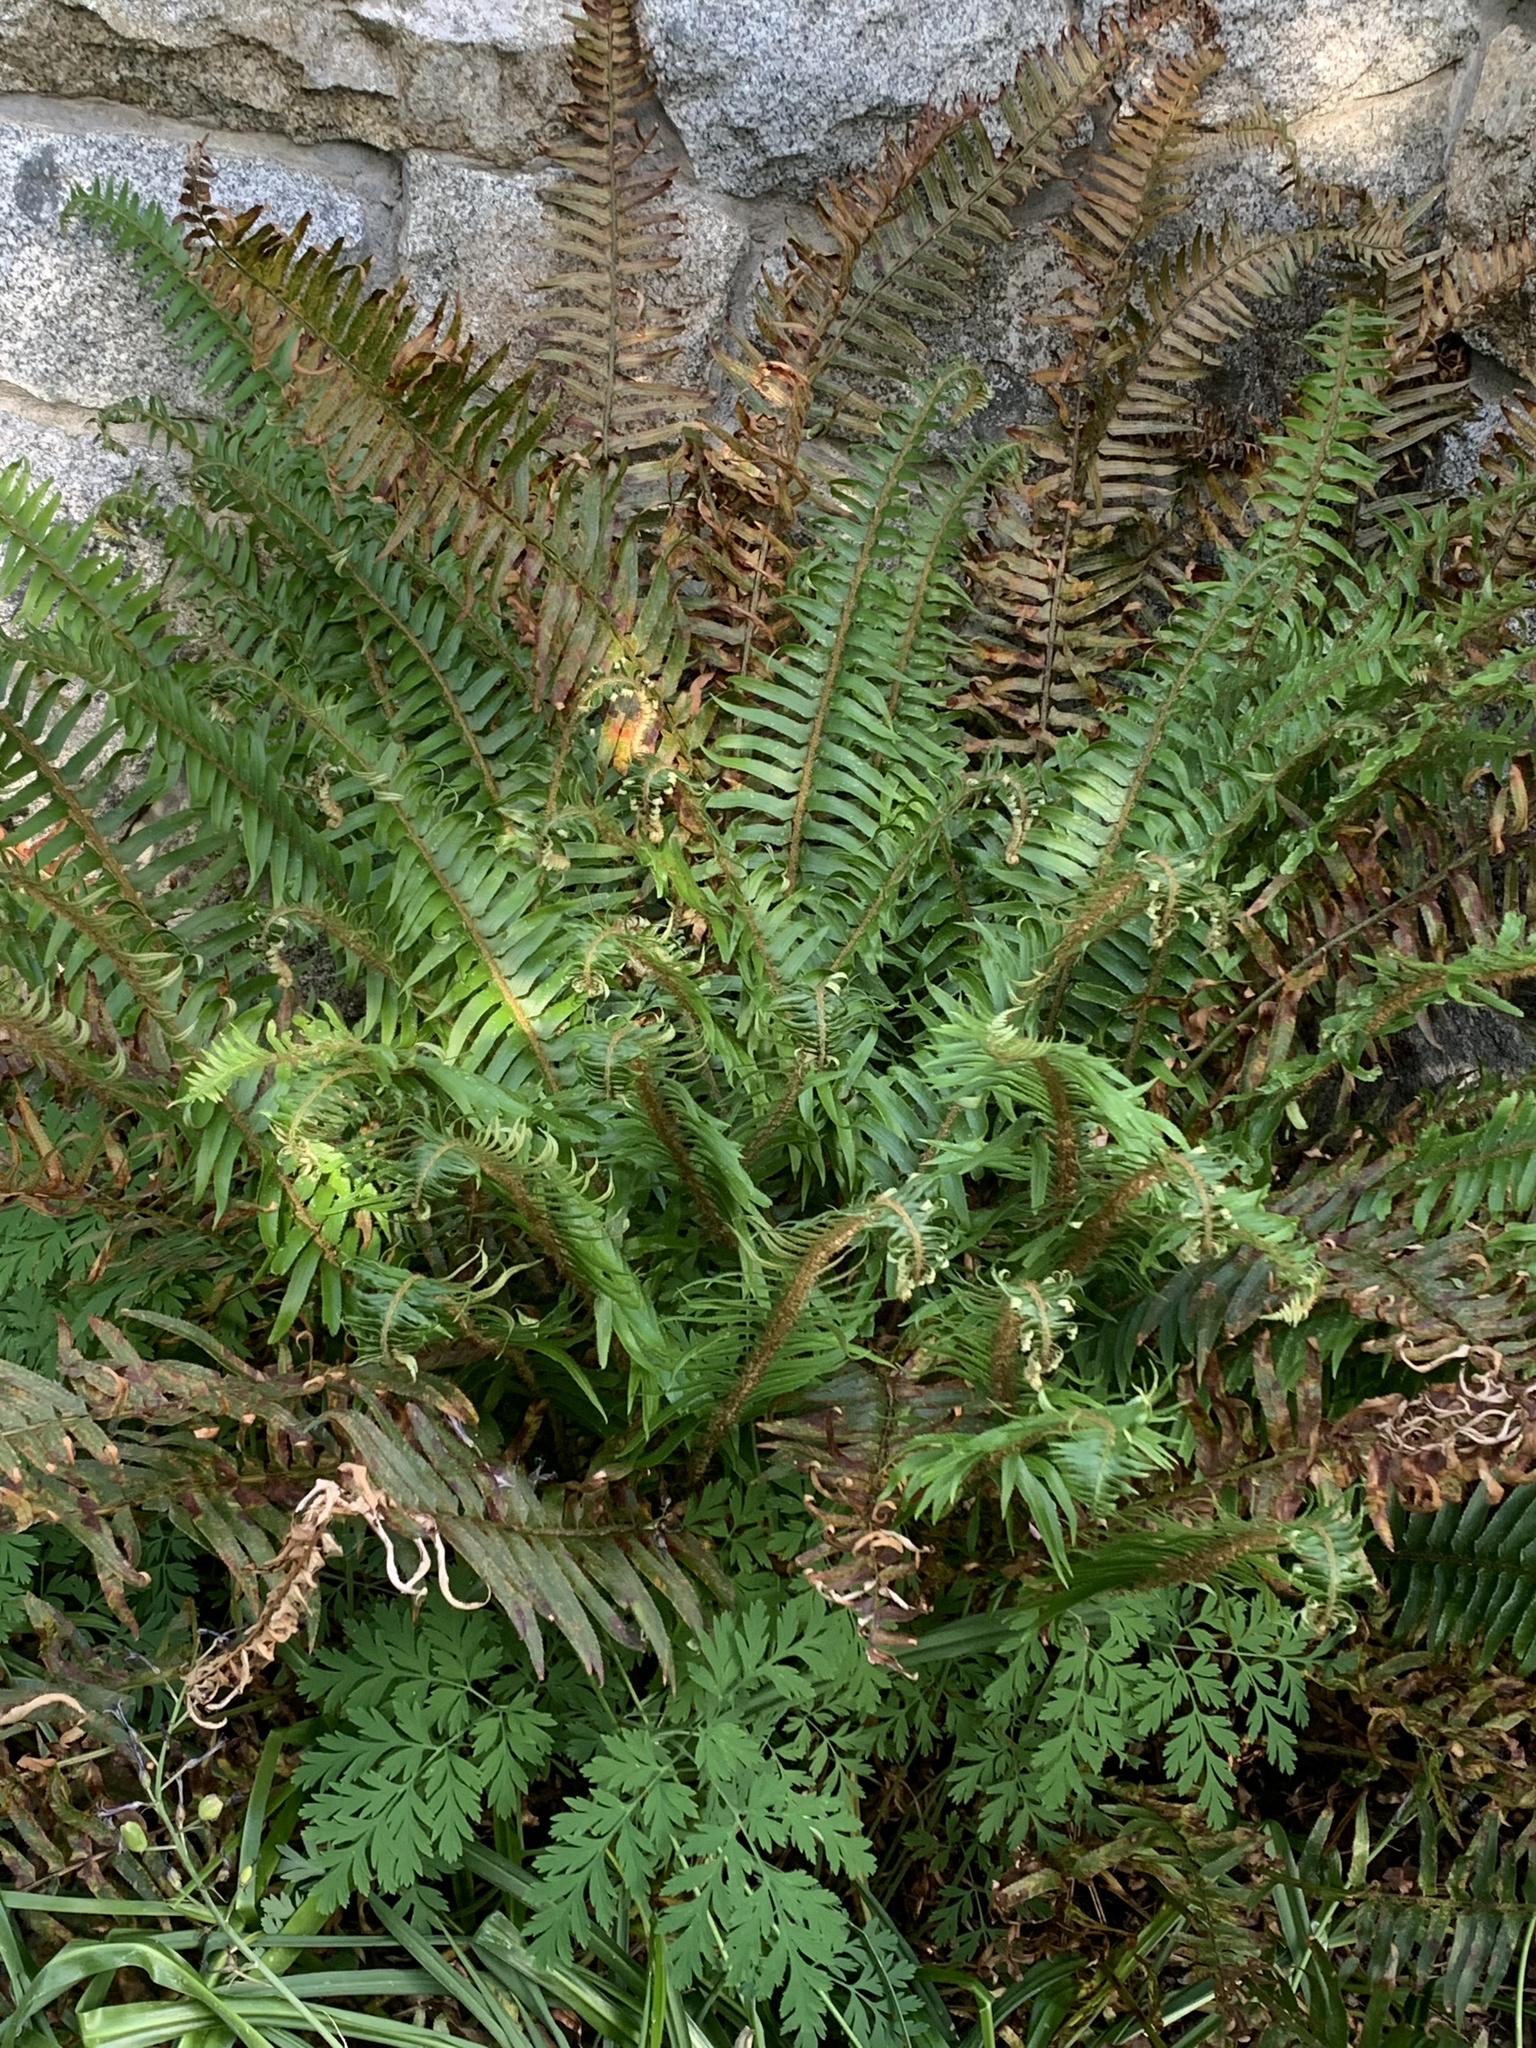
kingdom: Plantae
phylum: Tracheophyta
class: Polypodiopsida
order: Polypodiales
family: Dryopteridaceae
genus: Polystichum
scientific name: Polystichum munitum
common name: Western sword-fern
